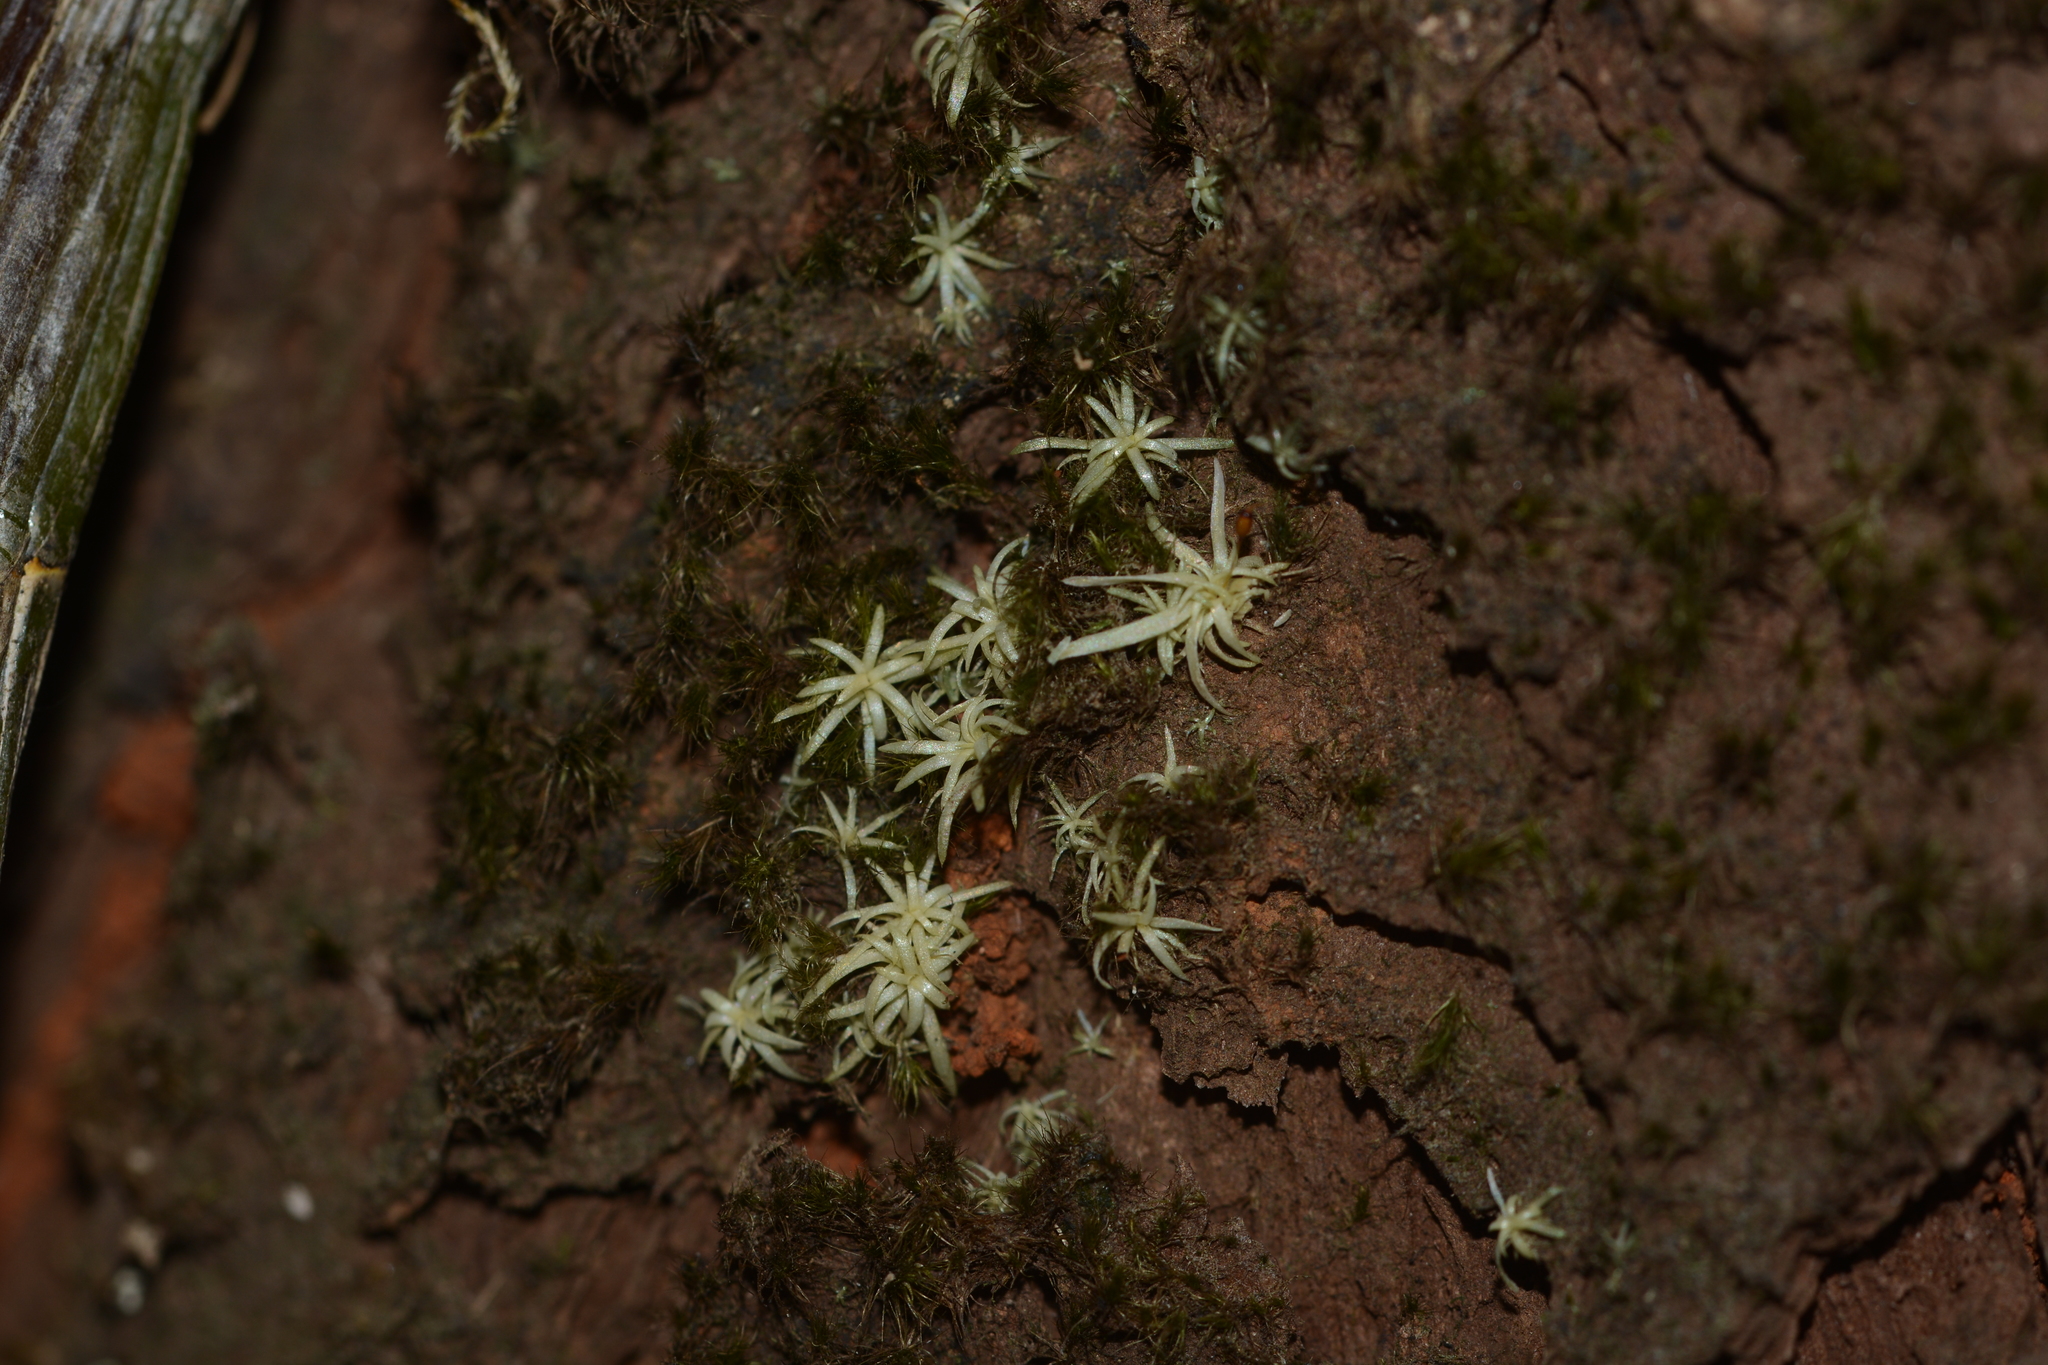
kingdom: Plantae
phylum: Bryophyta
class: Bryopsida
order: Dicranales
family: Octoblepharaceae
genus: Octoblepharum
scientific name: Octoblepharum albidum
